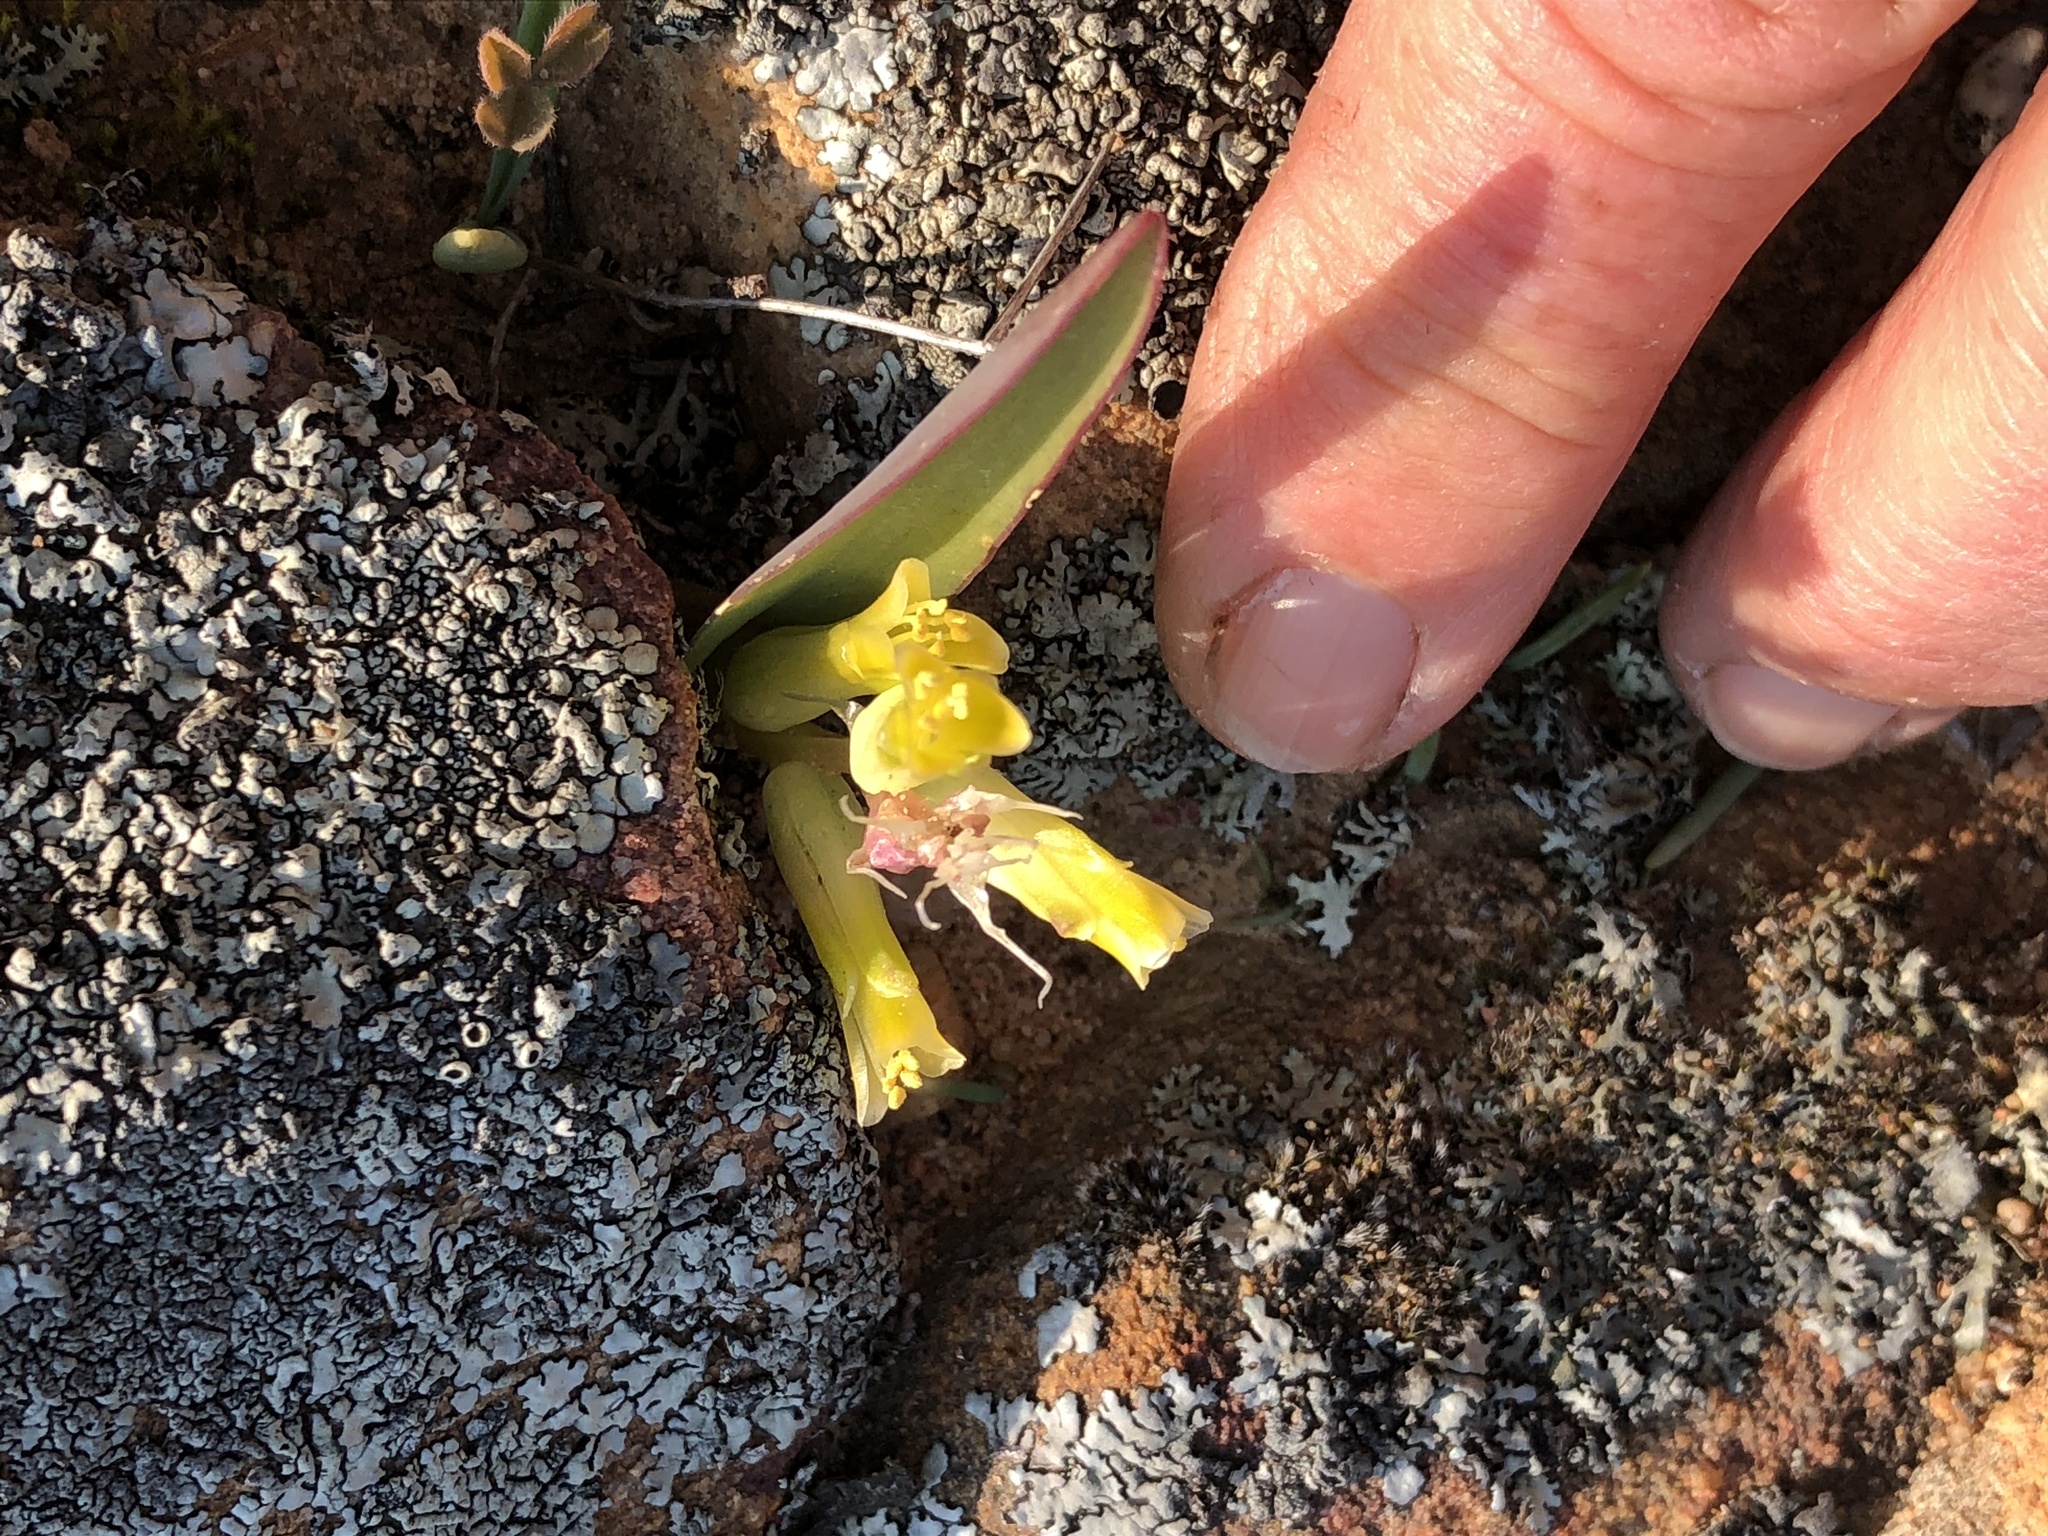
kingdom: Plantae
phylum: Tracheophyta
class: Liliopsida
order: Asparagales
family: Asparagaceae
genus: Lachenalia
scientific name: Lachenalia reflexa
